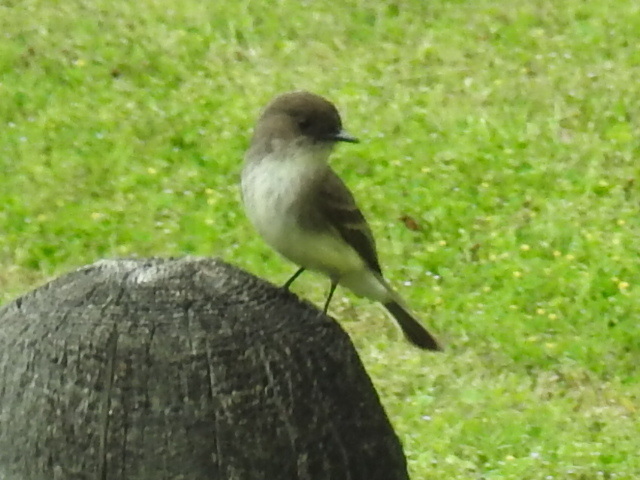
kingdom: Animalia
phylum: Chordata
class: Aves
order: Passeriformes
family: Tyrannidae
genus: Sayornis
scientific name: Sayornis phoebe
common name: Eastern phoebe
